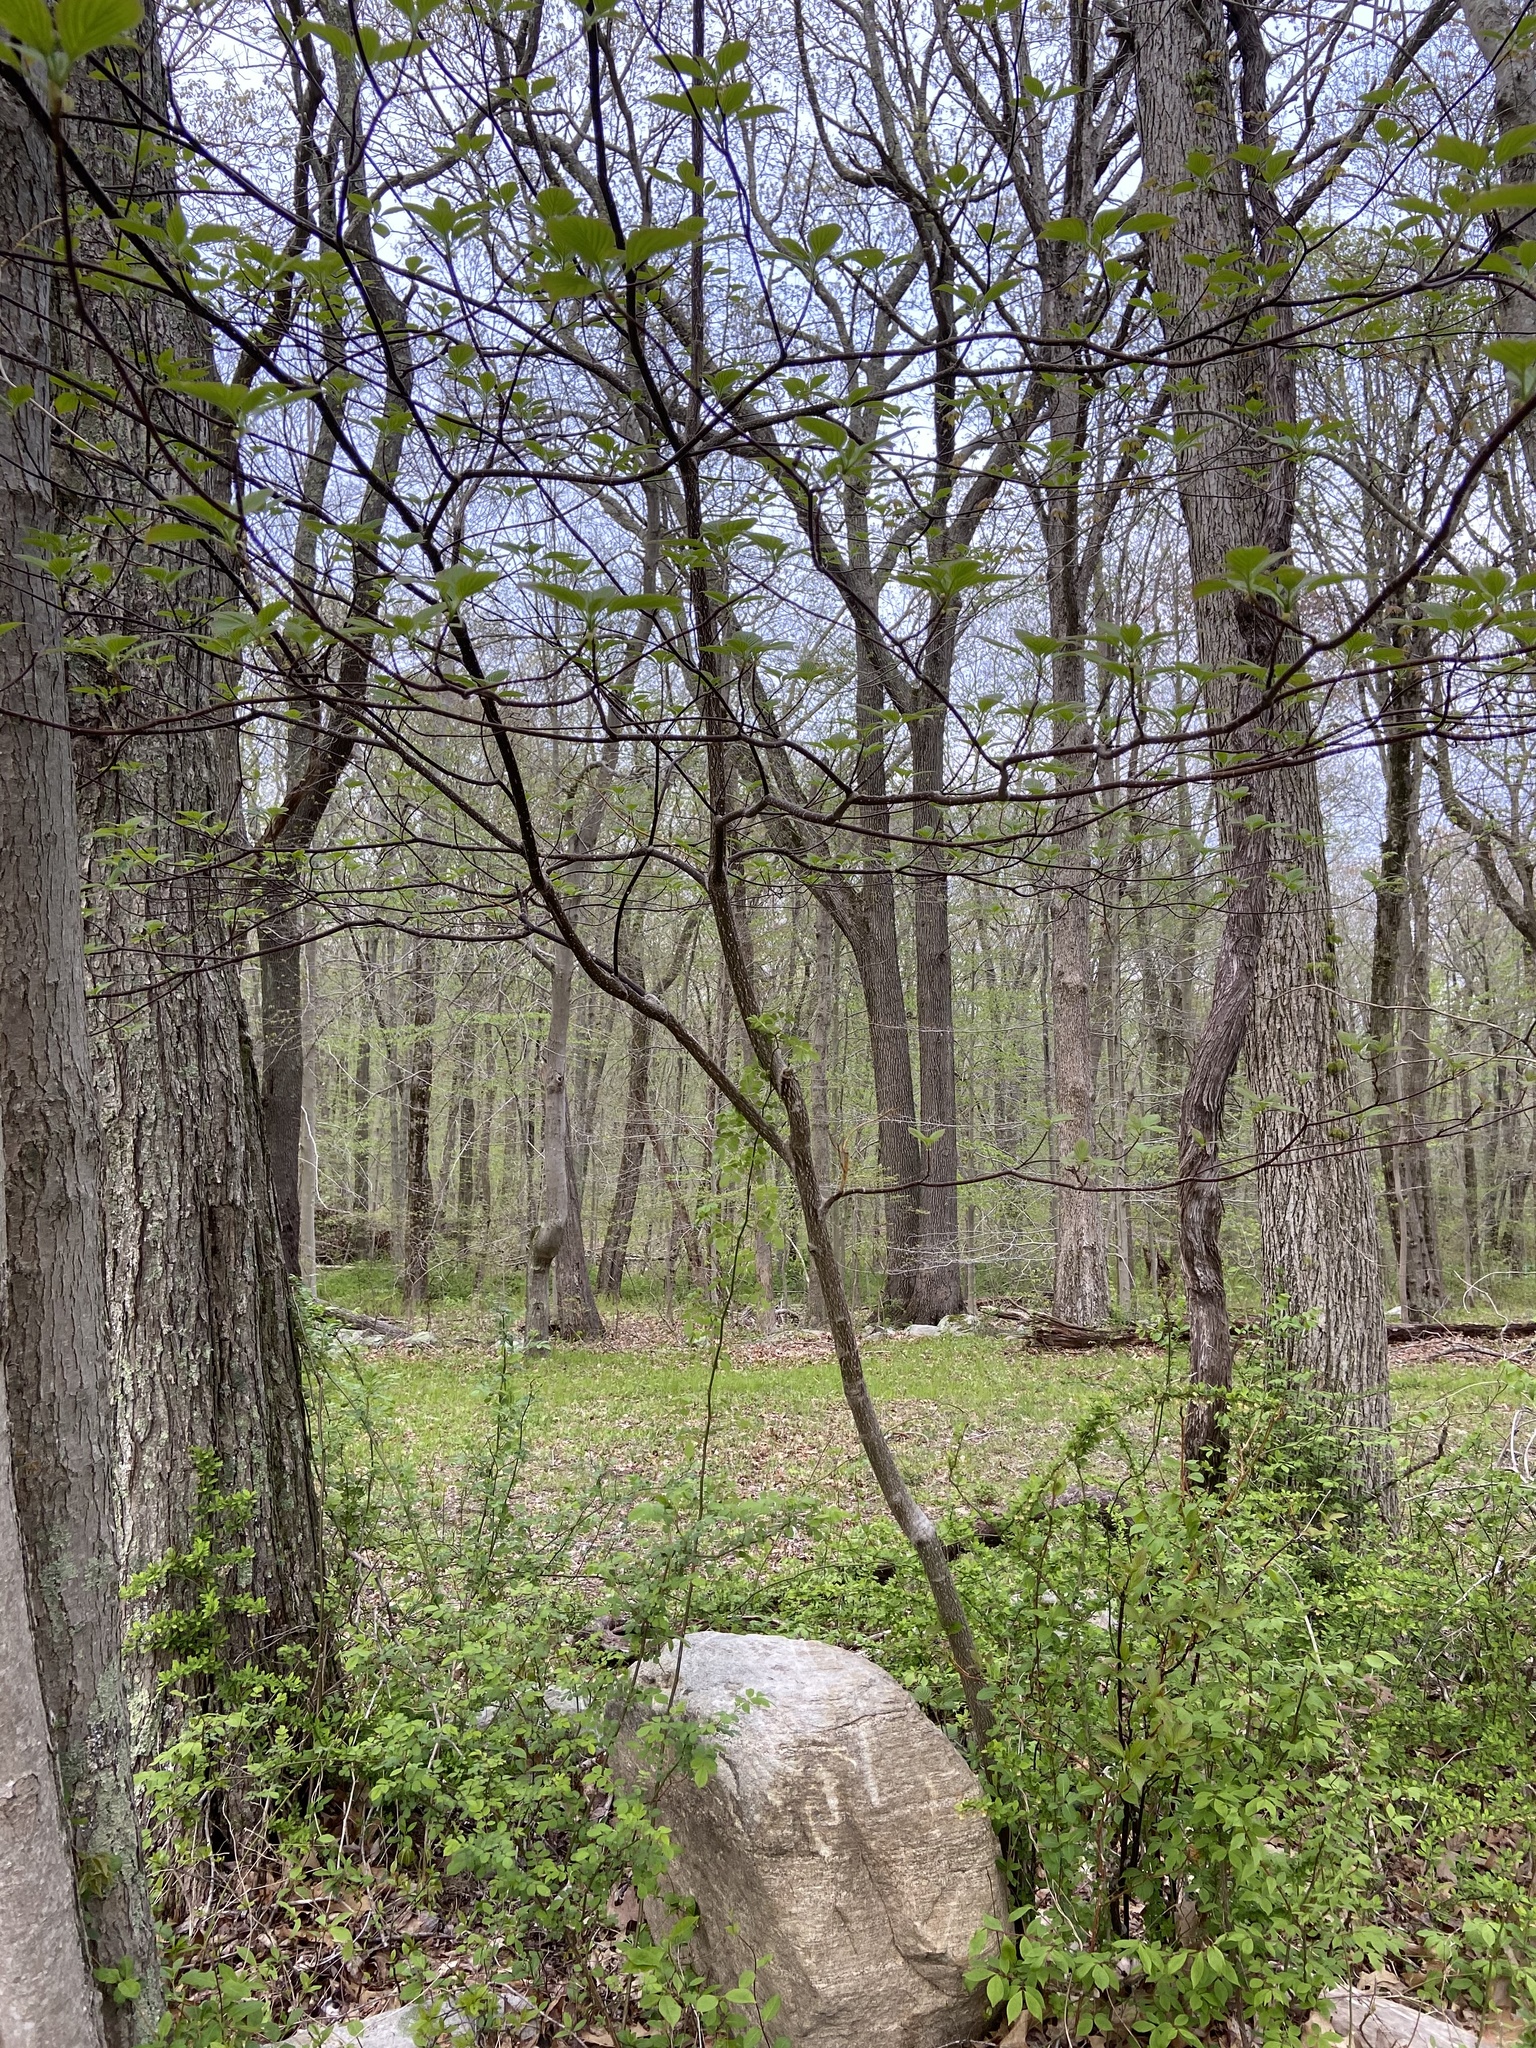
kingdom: Plantae
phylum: Tracheophyta
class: Magnoliopsida
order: Cornales
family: Cornaceae
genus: Cornus
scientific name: Cornus alternifolia
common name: Pagoda dogwood
